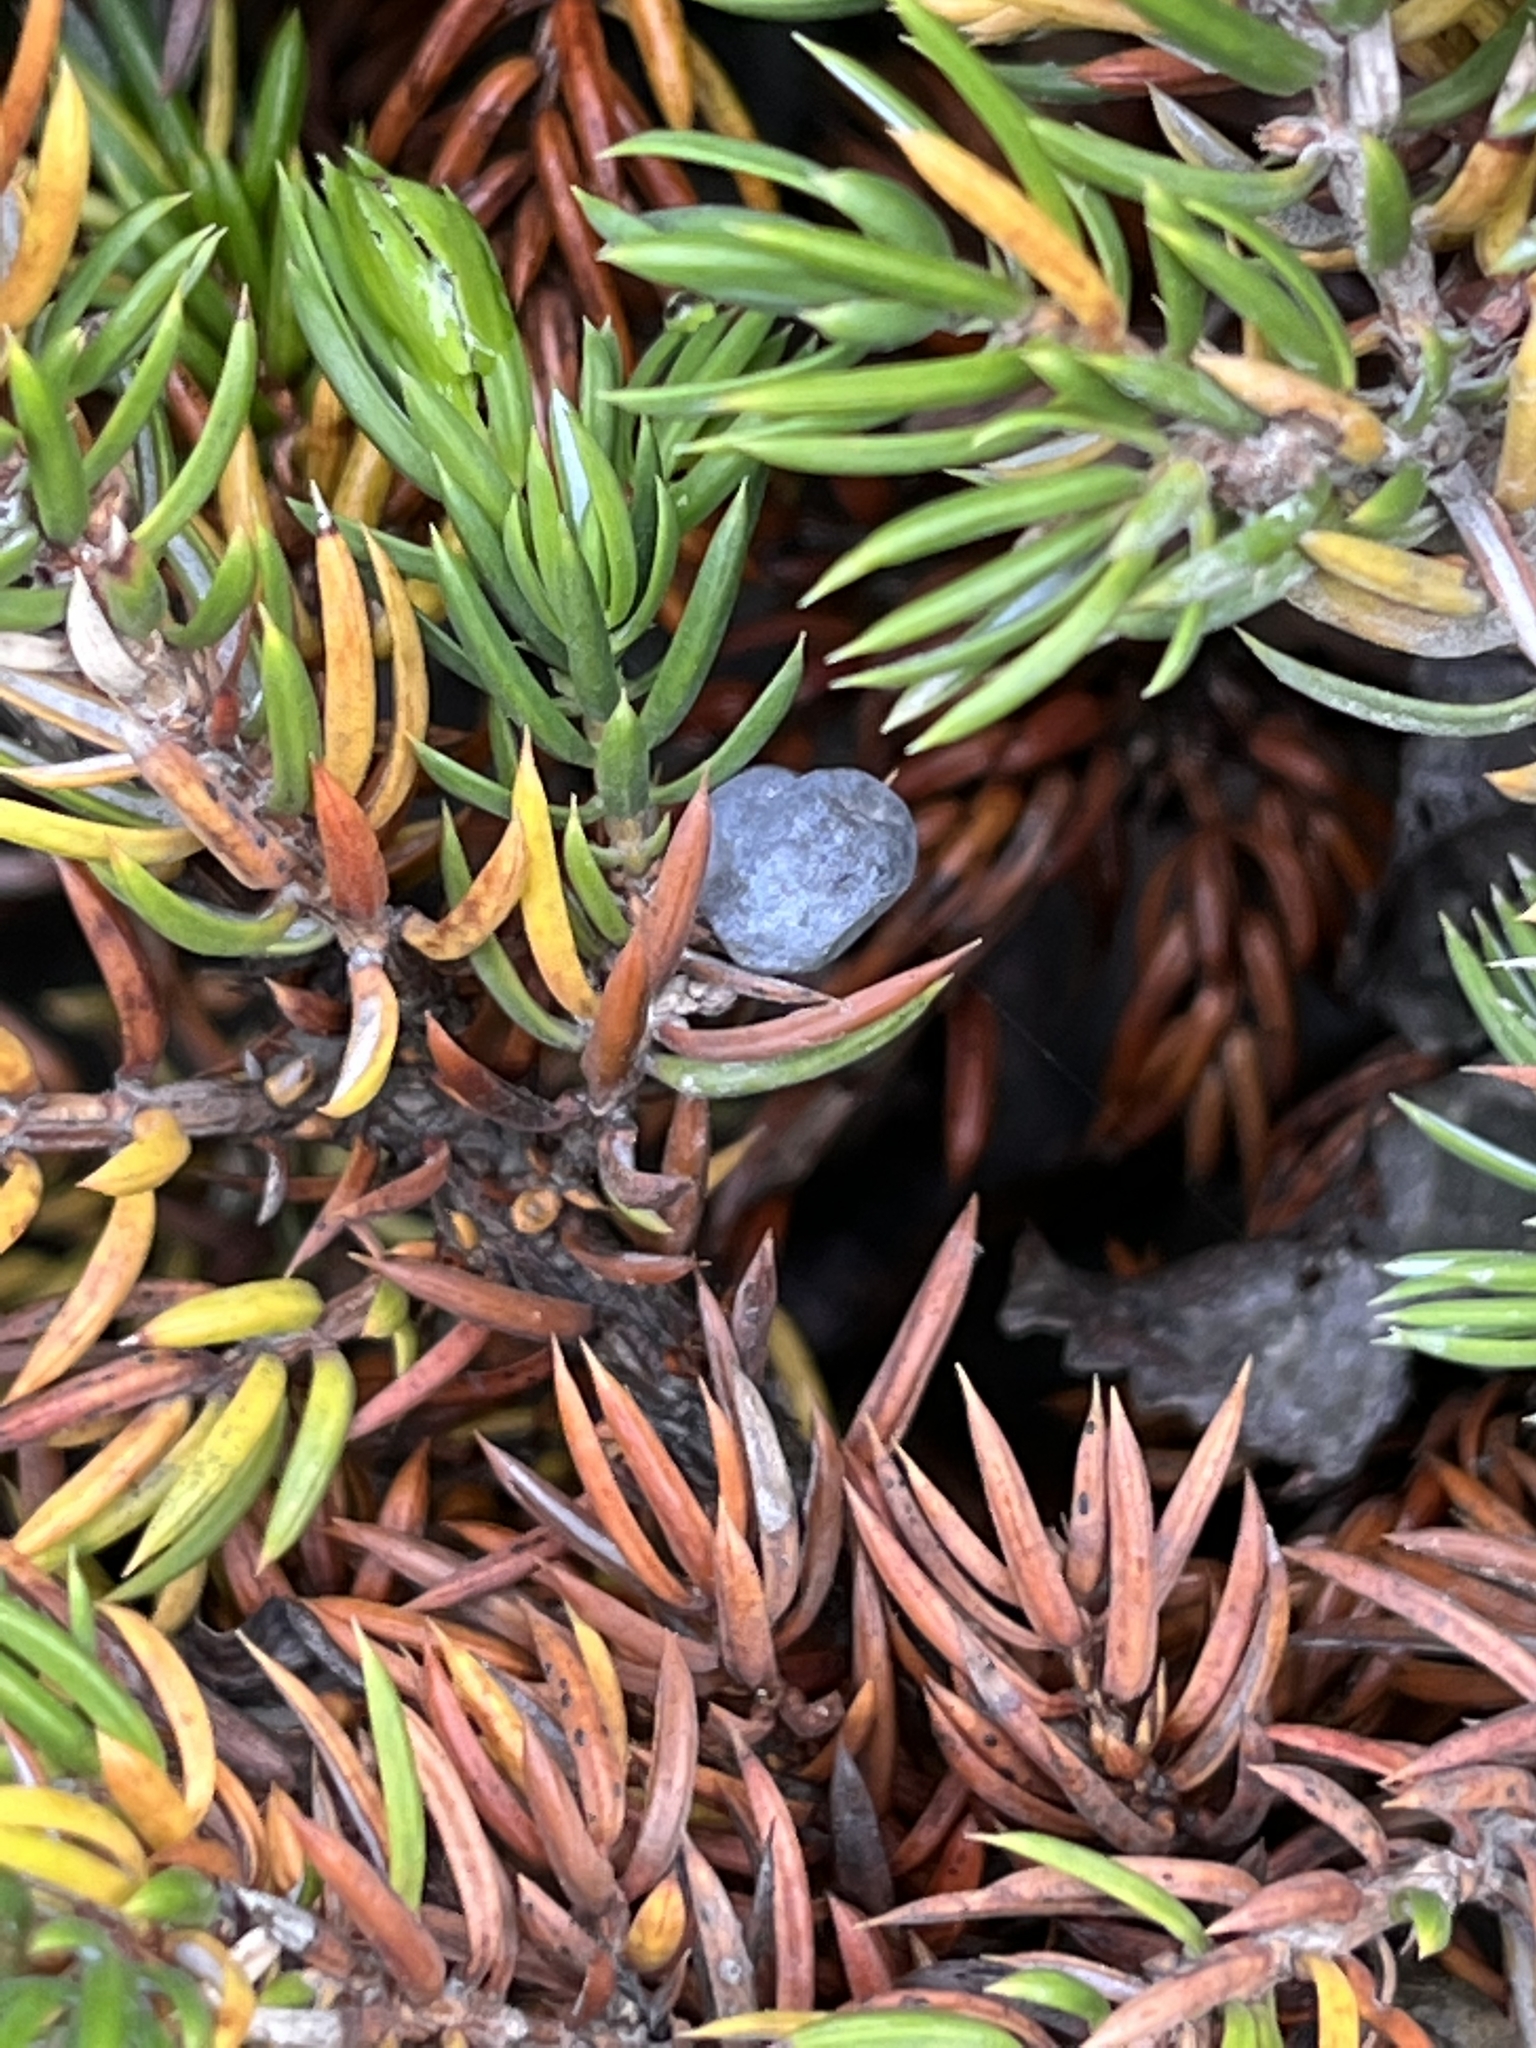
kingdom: Plantae
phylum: Tracheophyta
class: Pinopsida
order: Pinales
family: Cupressaceae
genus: Juniperus
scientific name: Juniperus communis
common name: Common juniper
